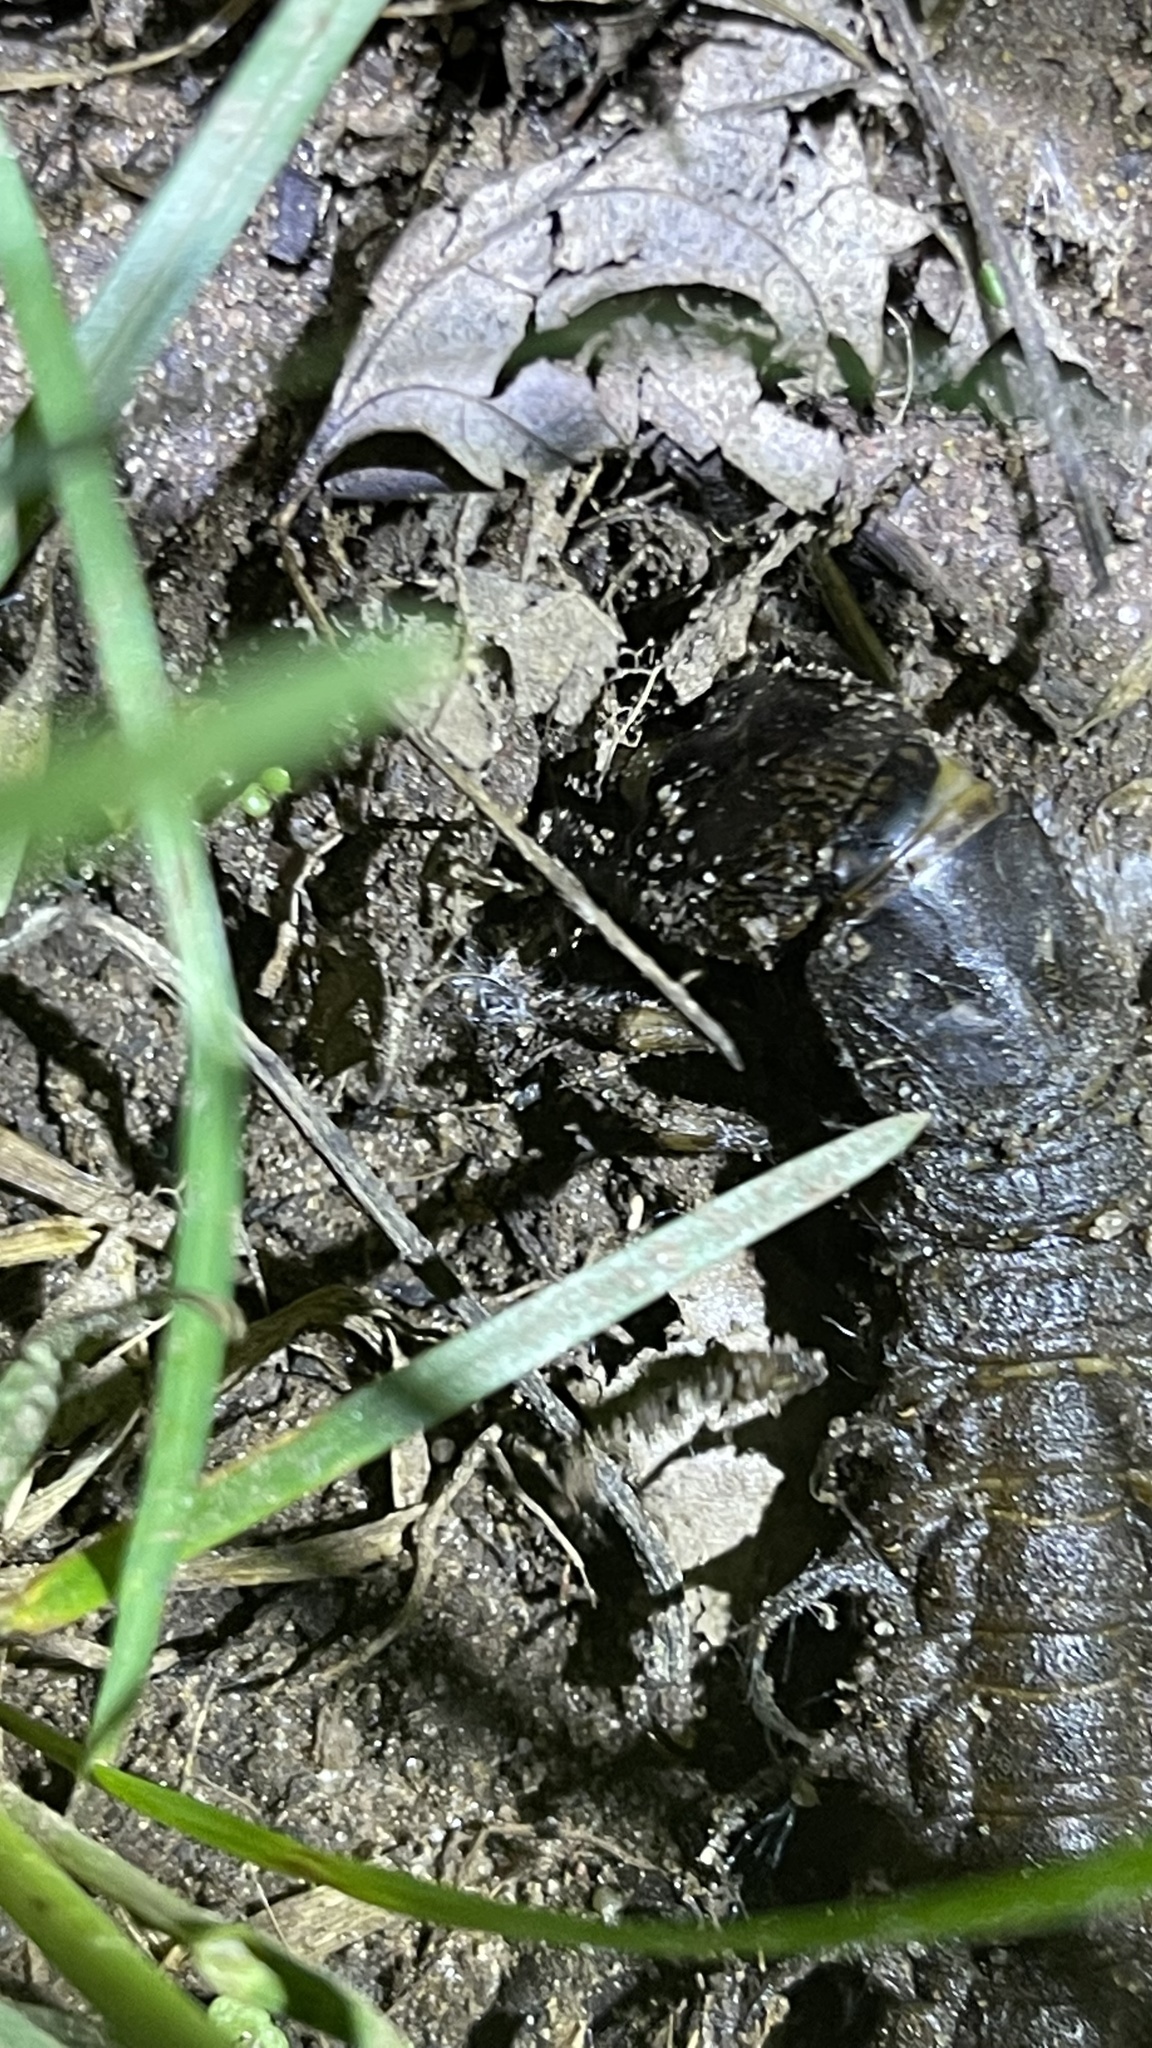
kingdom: Animalia
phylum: Arthropoda
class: Insecta
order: Megaloptera
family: Corydalidae
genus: Corydalus
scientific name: Corydalus cornutus
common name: Dobsonfly
